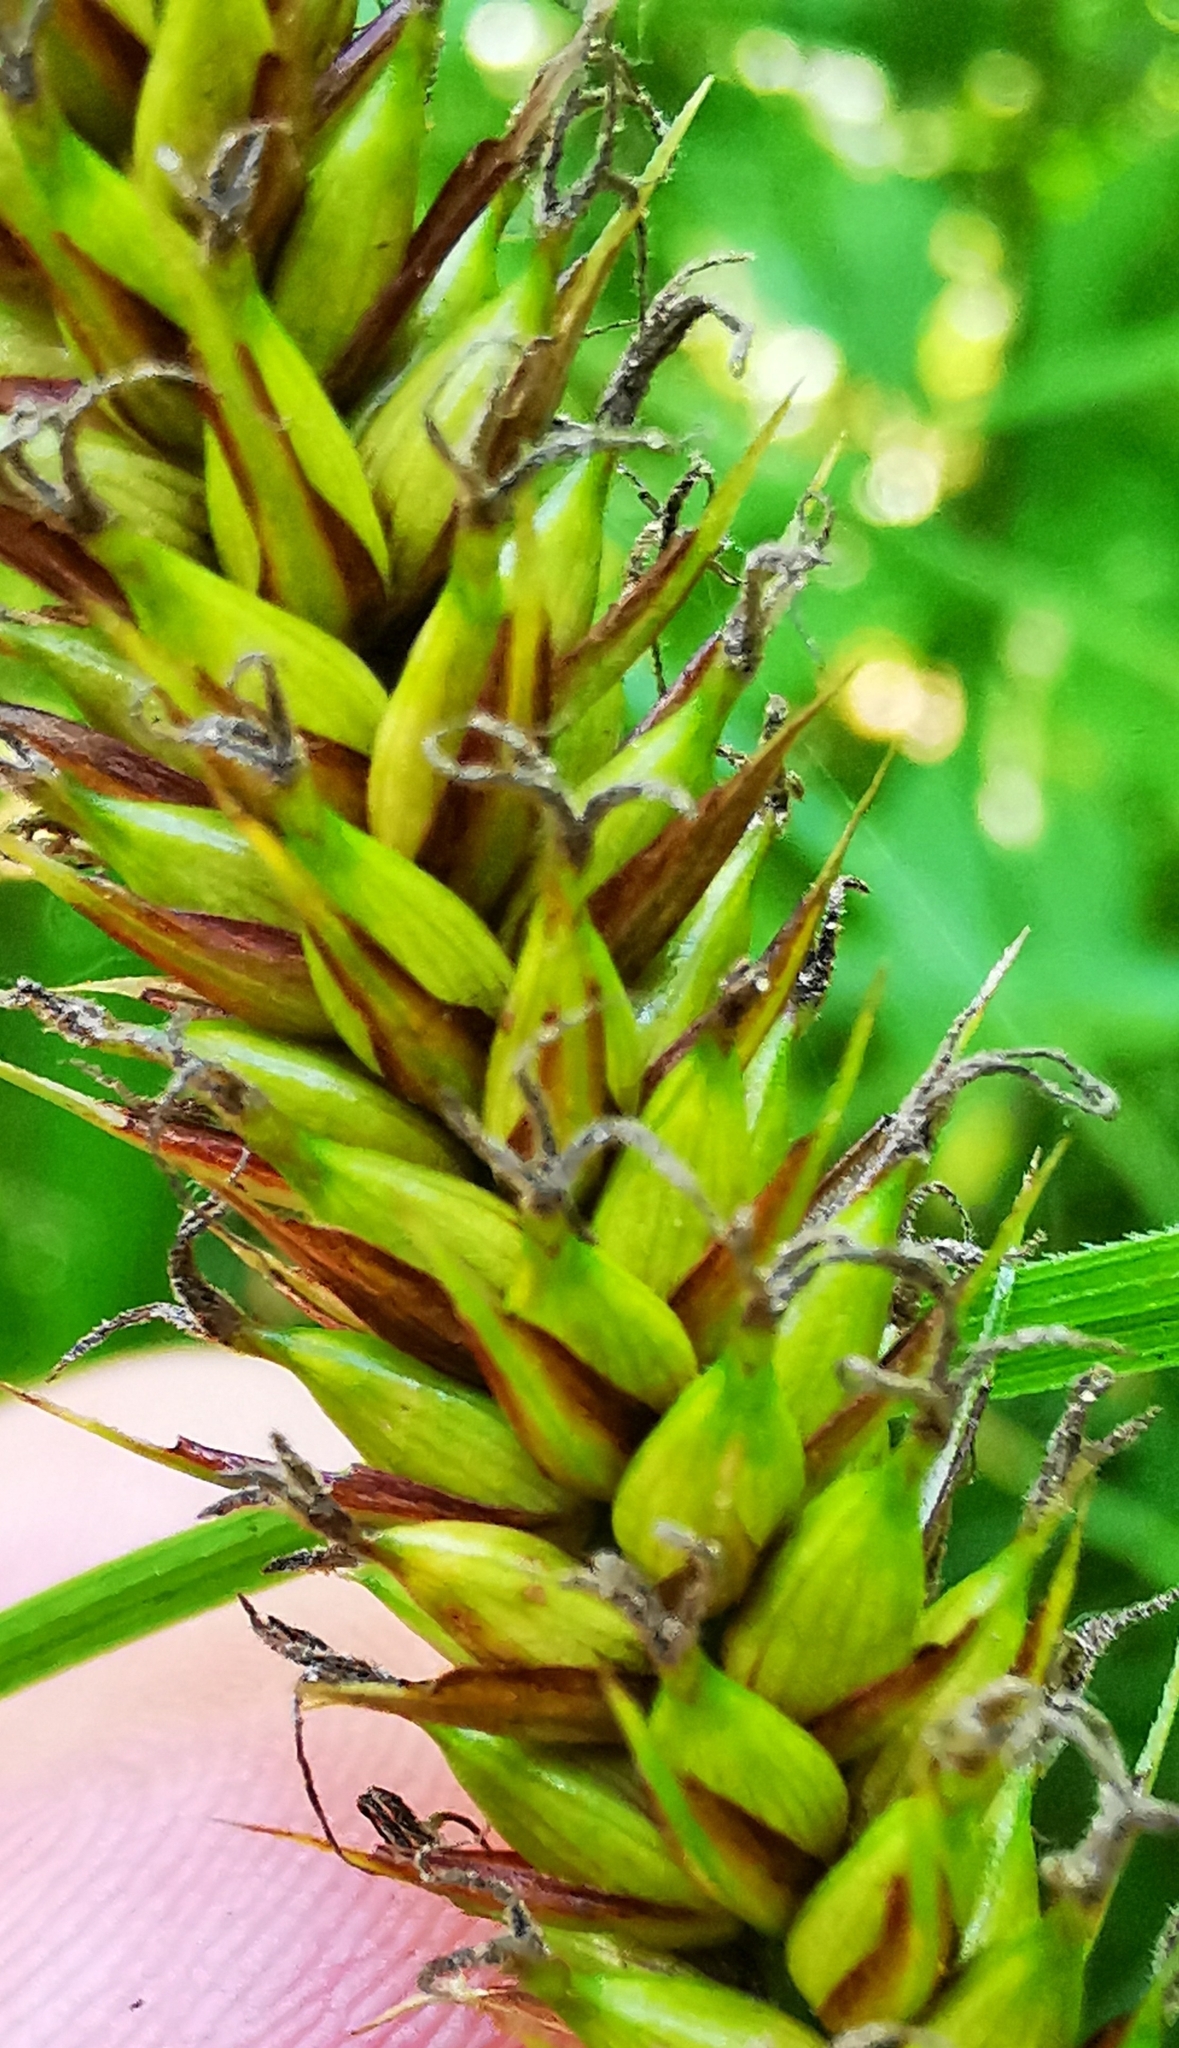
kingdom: Plantae
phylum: Tracheophyta
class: Liliopsida
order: Poales
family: Cyperaceae
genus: Carex
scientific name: Carex riparia
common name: Greater pond-sedge
